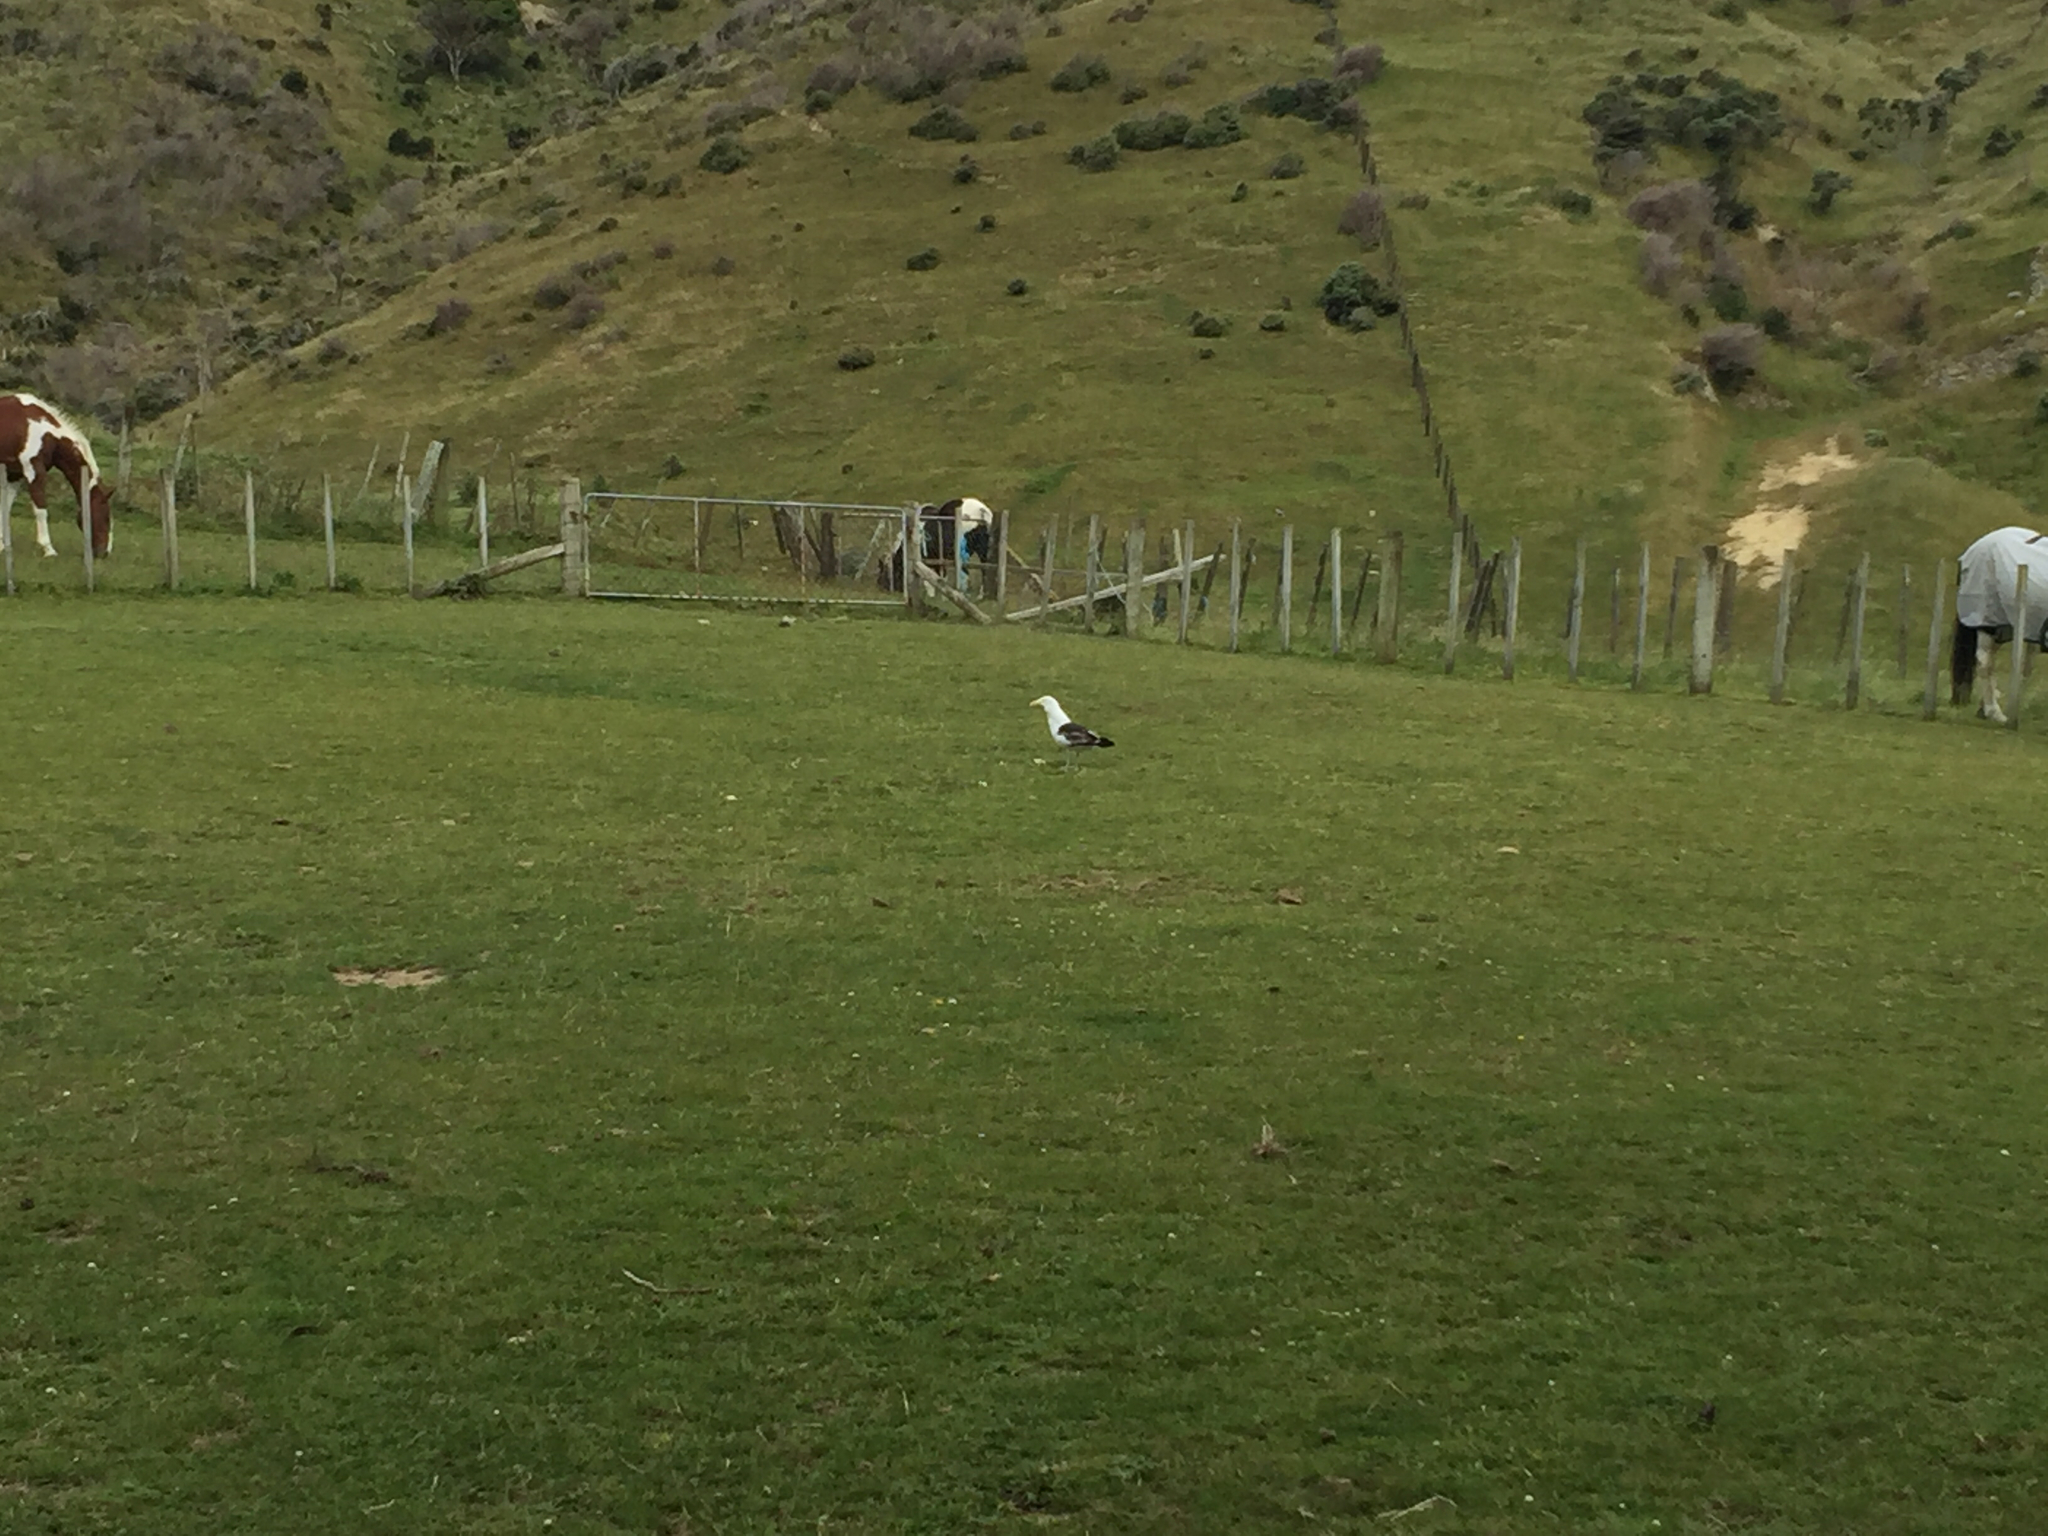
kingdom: Animalia
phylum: Chordata
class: Aves
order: Charadriiformes
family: Laridae
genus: Larus
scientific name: Larus dominicanus
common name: Kelp gull
